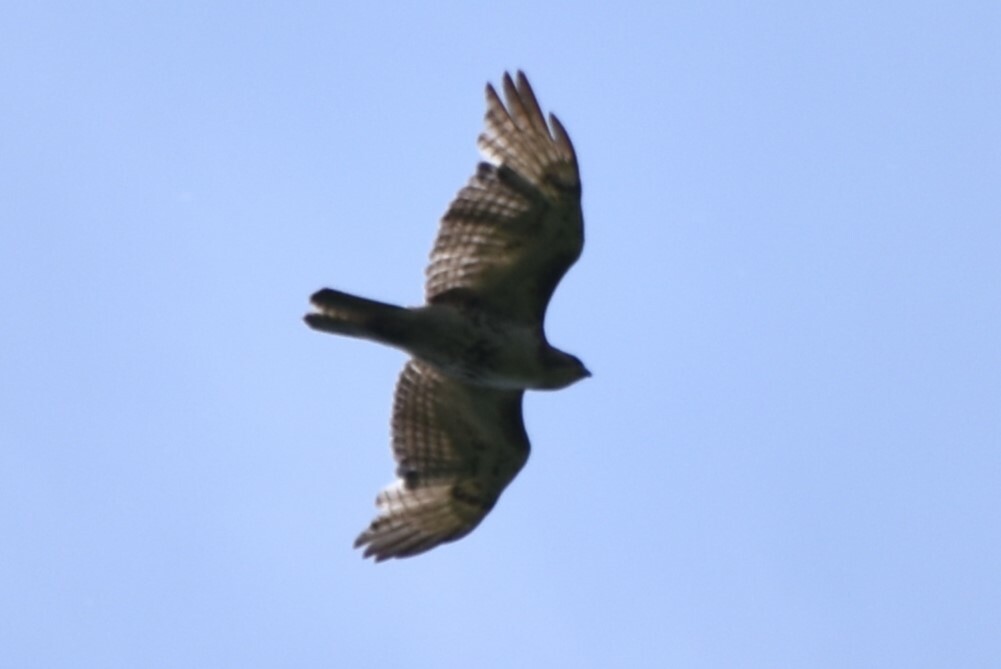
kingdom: Animalia
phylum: Chordata
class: Aves
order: Accipitriformes
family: Accipitridae
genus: Buteo
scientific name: Buteo jamaicensis
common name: Red-tailed hawk
